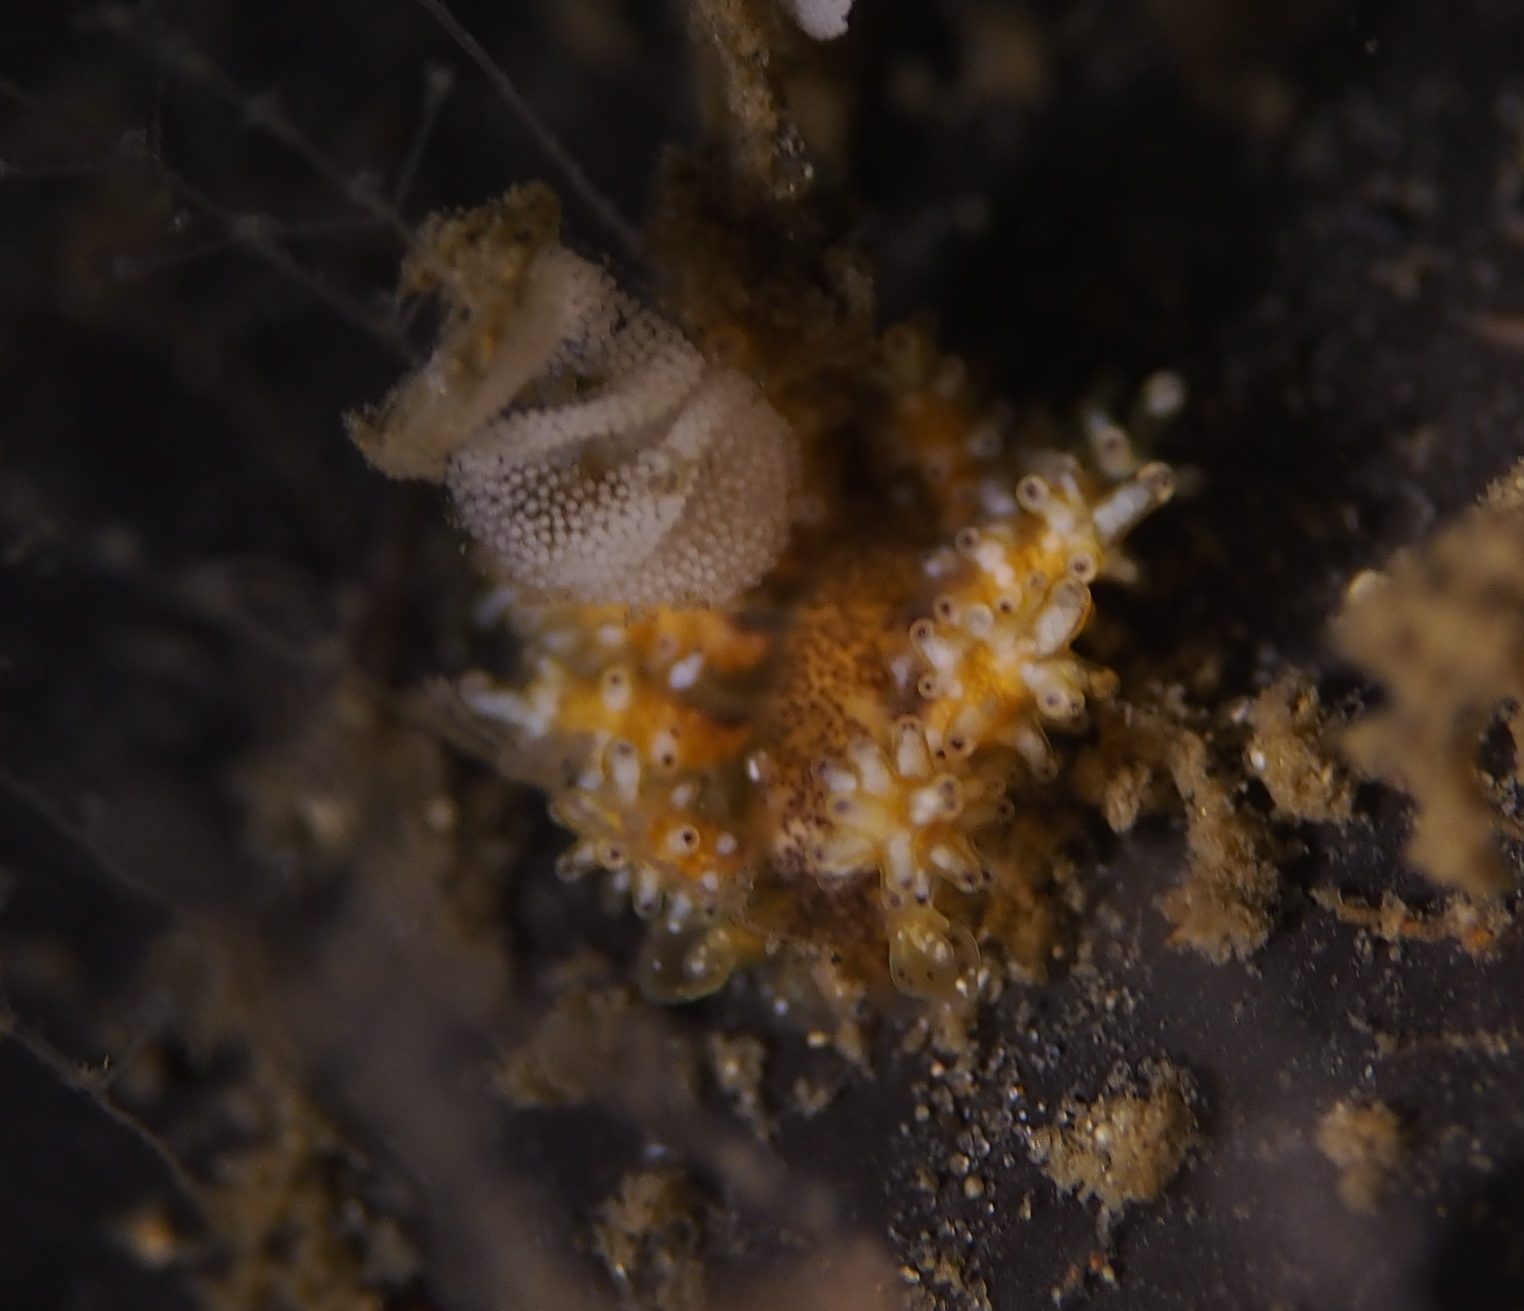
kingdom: Animalia
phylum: Mollusca
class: Gastropoda
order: Nudibranchia
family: Dotidae
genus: Doto
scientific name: Doto maculata
